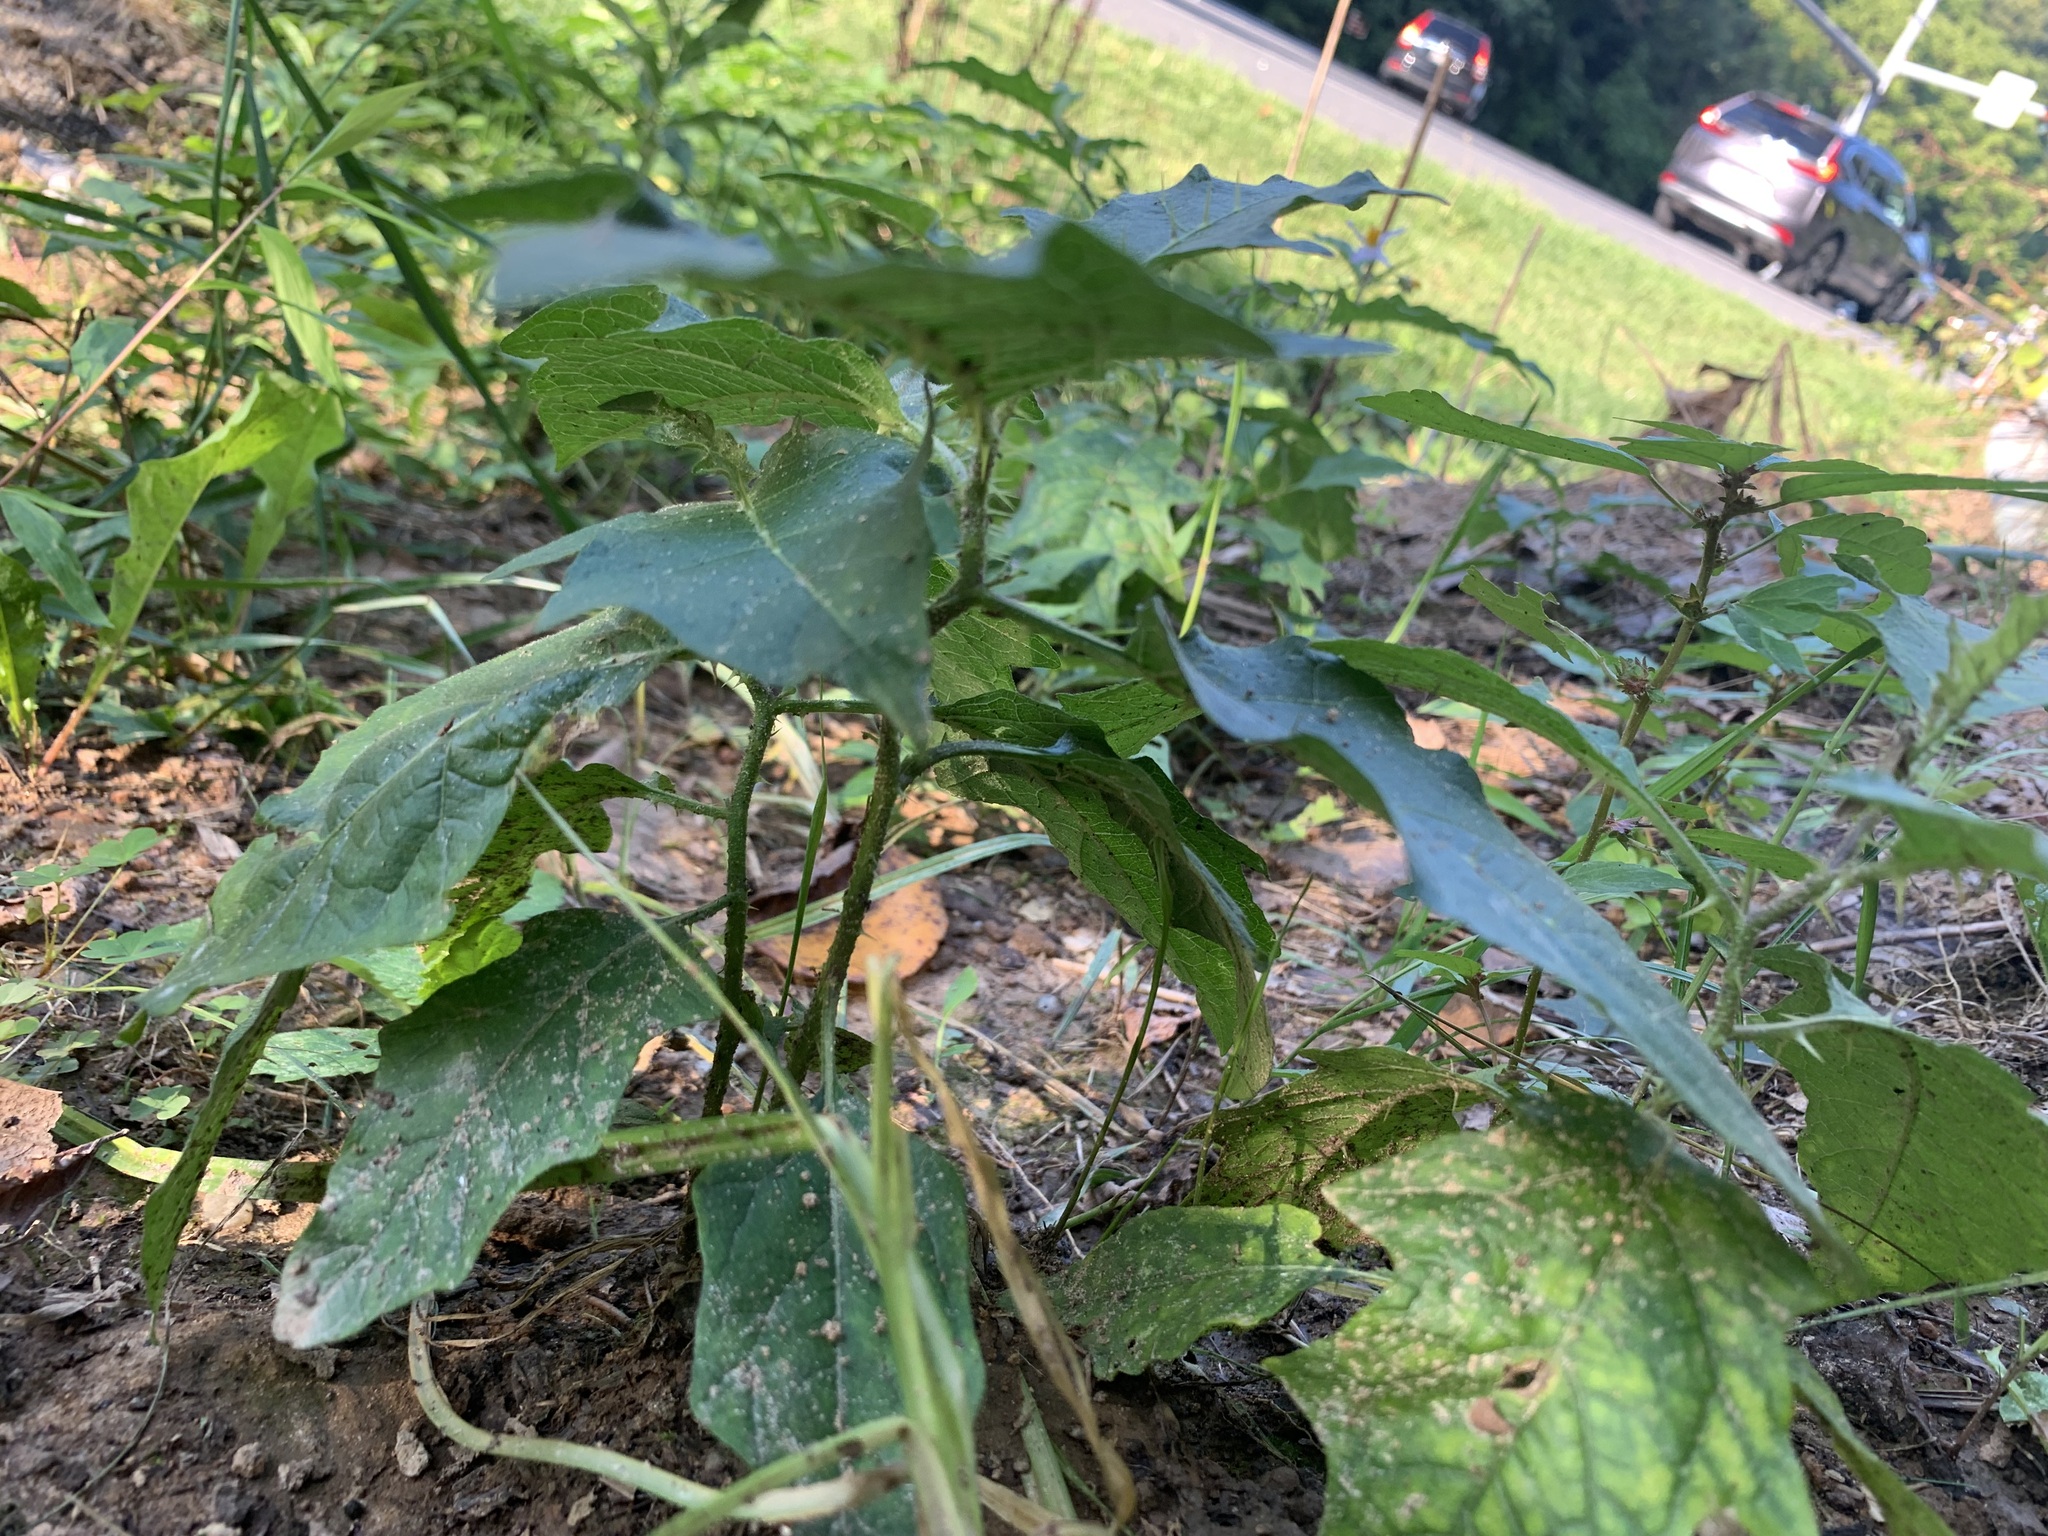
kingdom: Plantae
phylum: Tracheophyta
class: Magnoliopsida
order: Solanales
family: Solanaceae
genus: Solanum
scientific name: Solanum carolinense
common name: Horse-nettle
